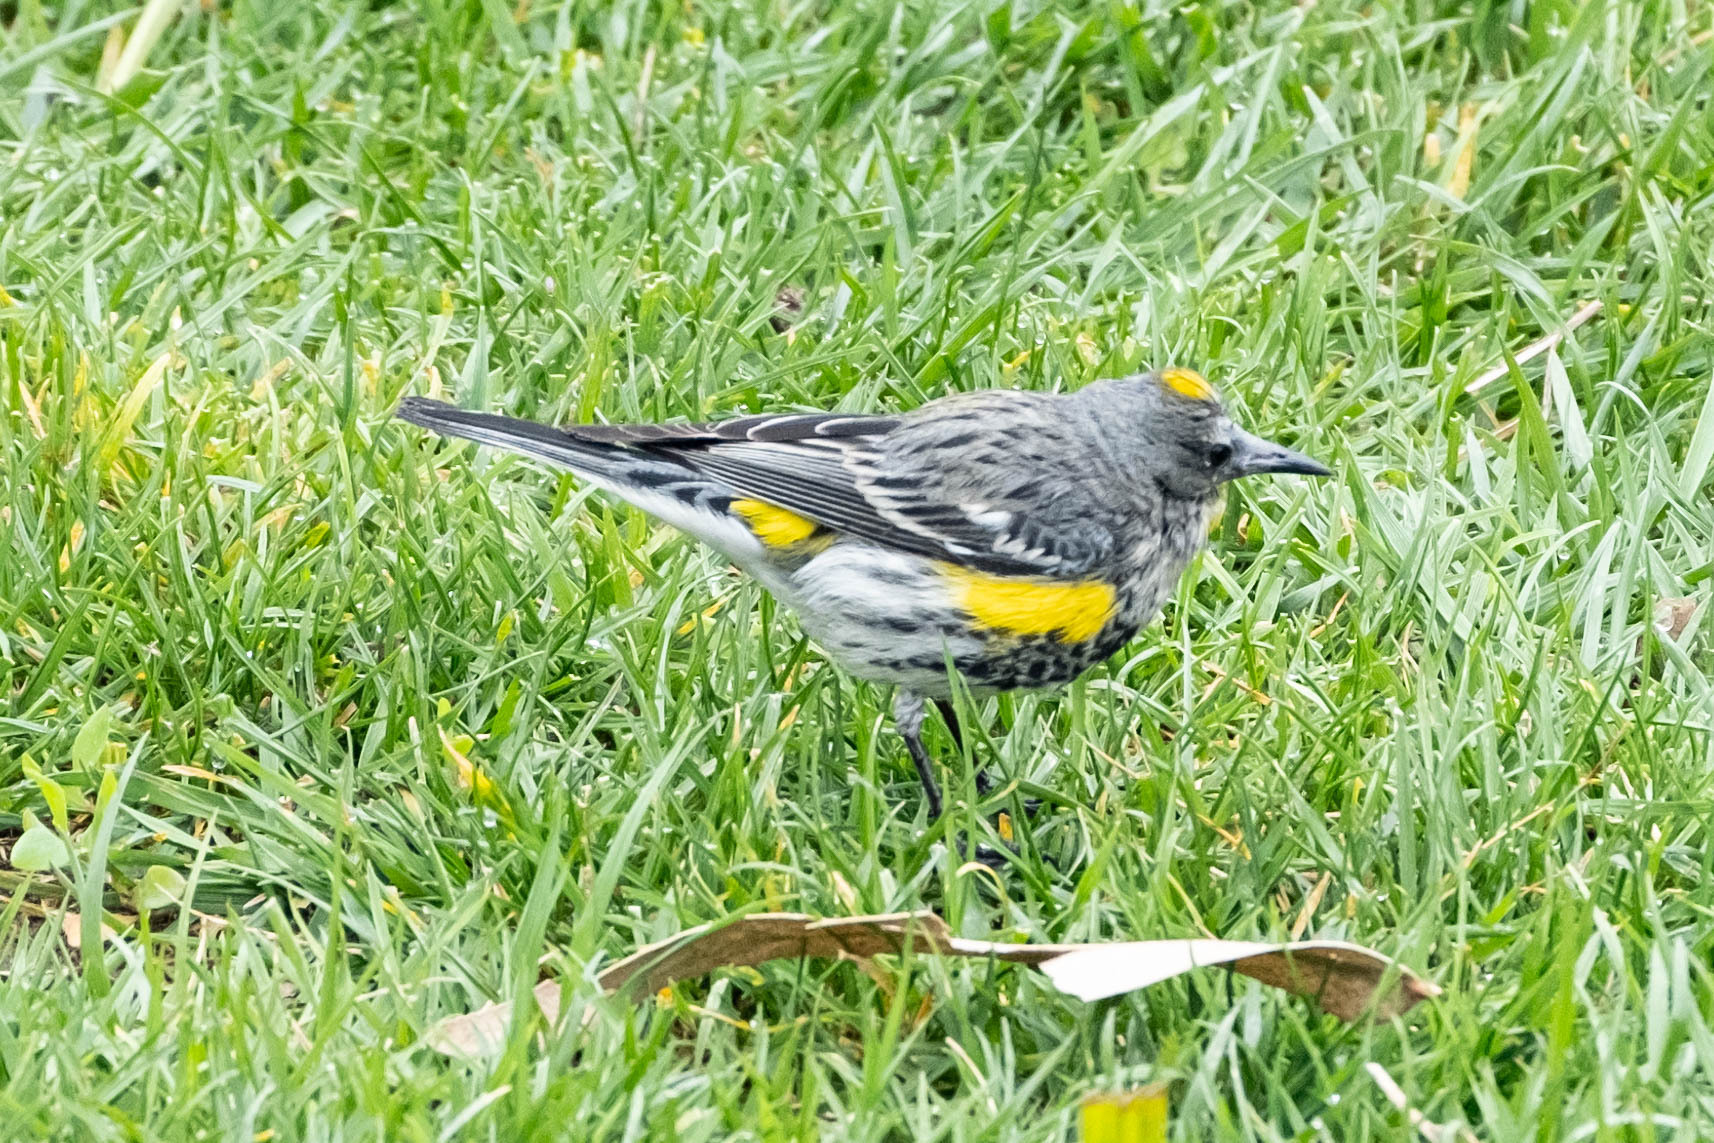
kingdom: Animalia
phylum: Chordata
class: Aves
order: Passeriformes
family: Parulidae
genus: Setophaga
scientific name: Setophaga coronata
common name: Myrtle warbler
